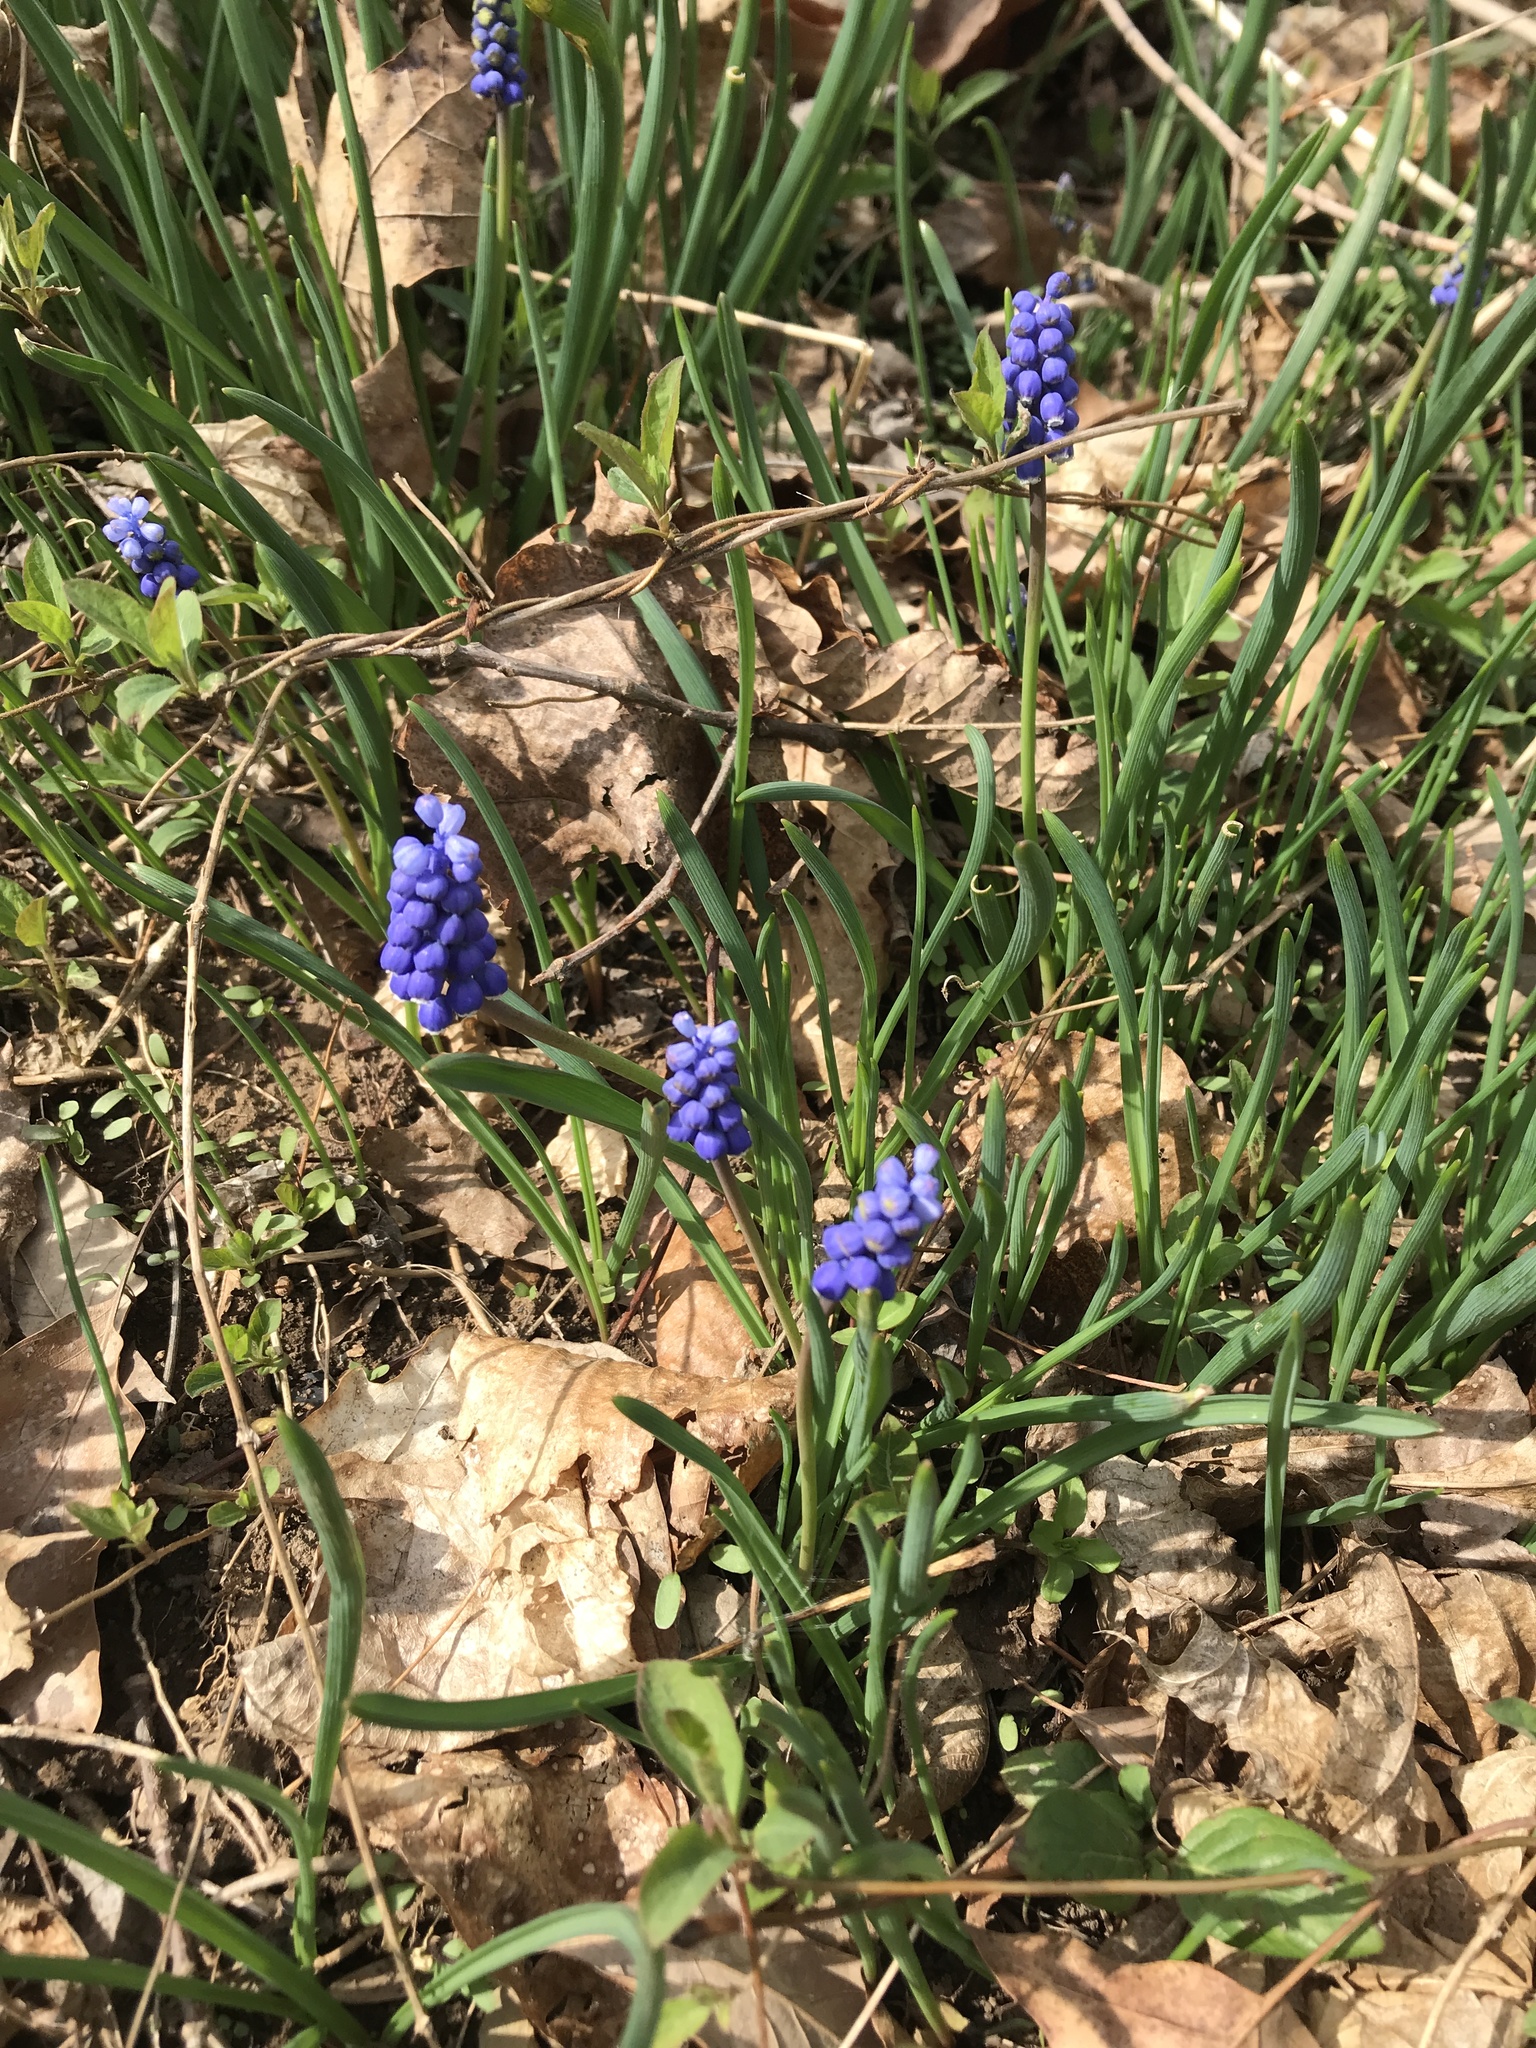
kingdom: Plantae
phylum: Tracheophyta
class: Liliopsida
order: Asparagales
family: Asparagaceae
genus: Muscari
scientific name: Muscari botryoides
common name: Compact grape-hyacinth
